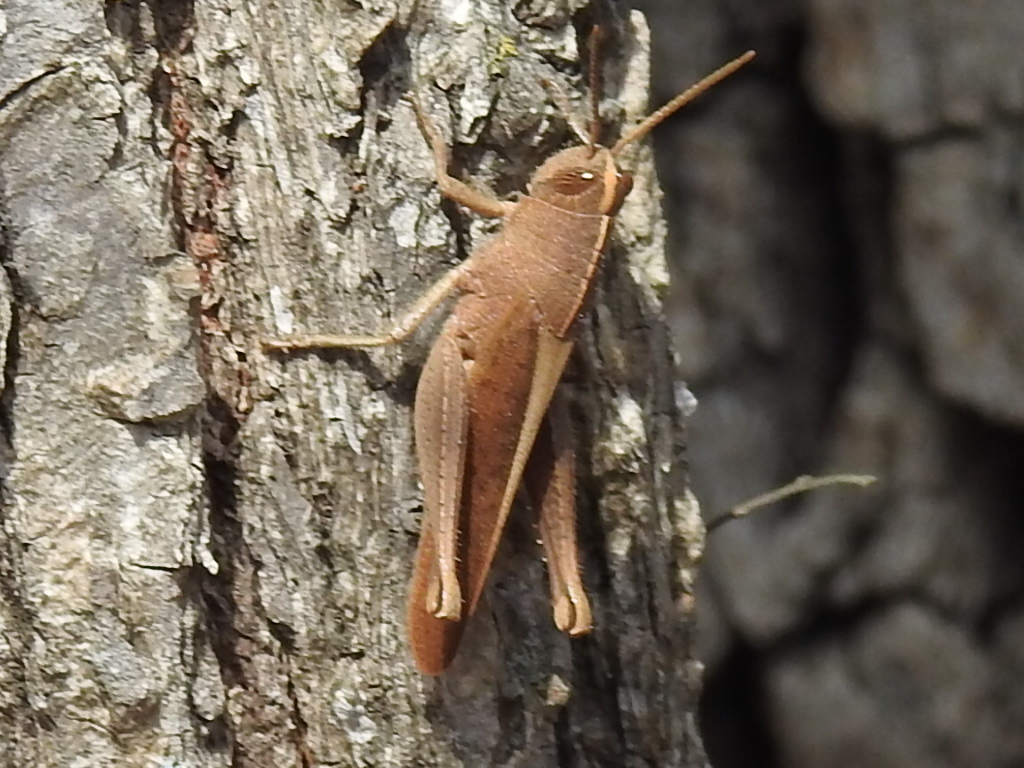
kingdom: Animalia
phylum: Arthropoda
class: Insecta
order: Orthoptera
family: Acrididae
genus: Schistocerca
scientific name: Schistocerca damnifica
